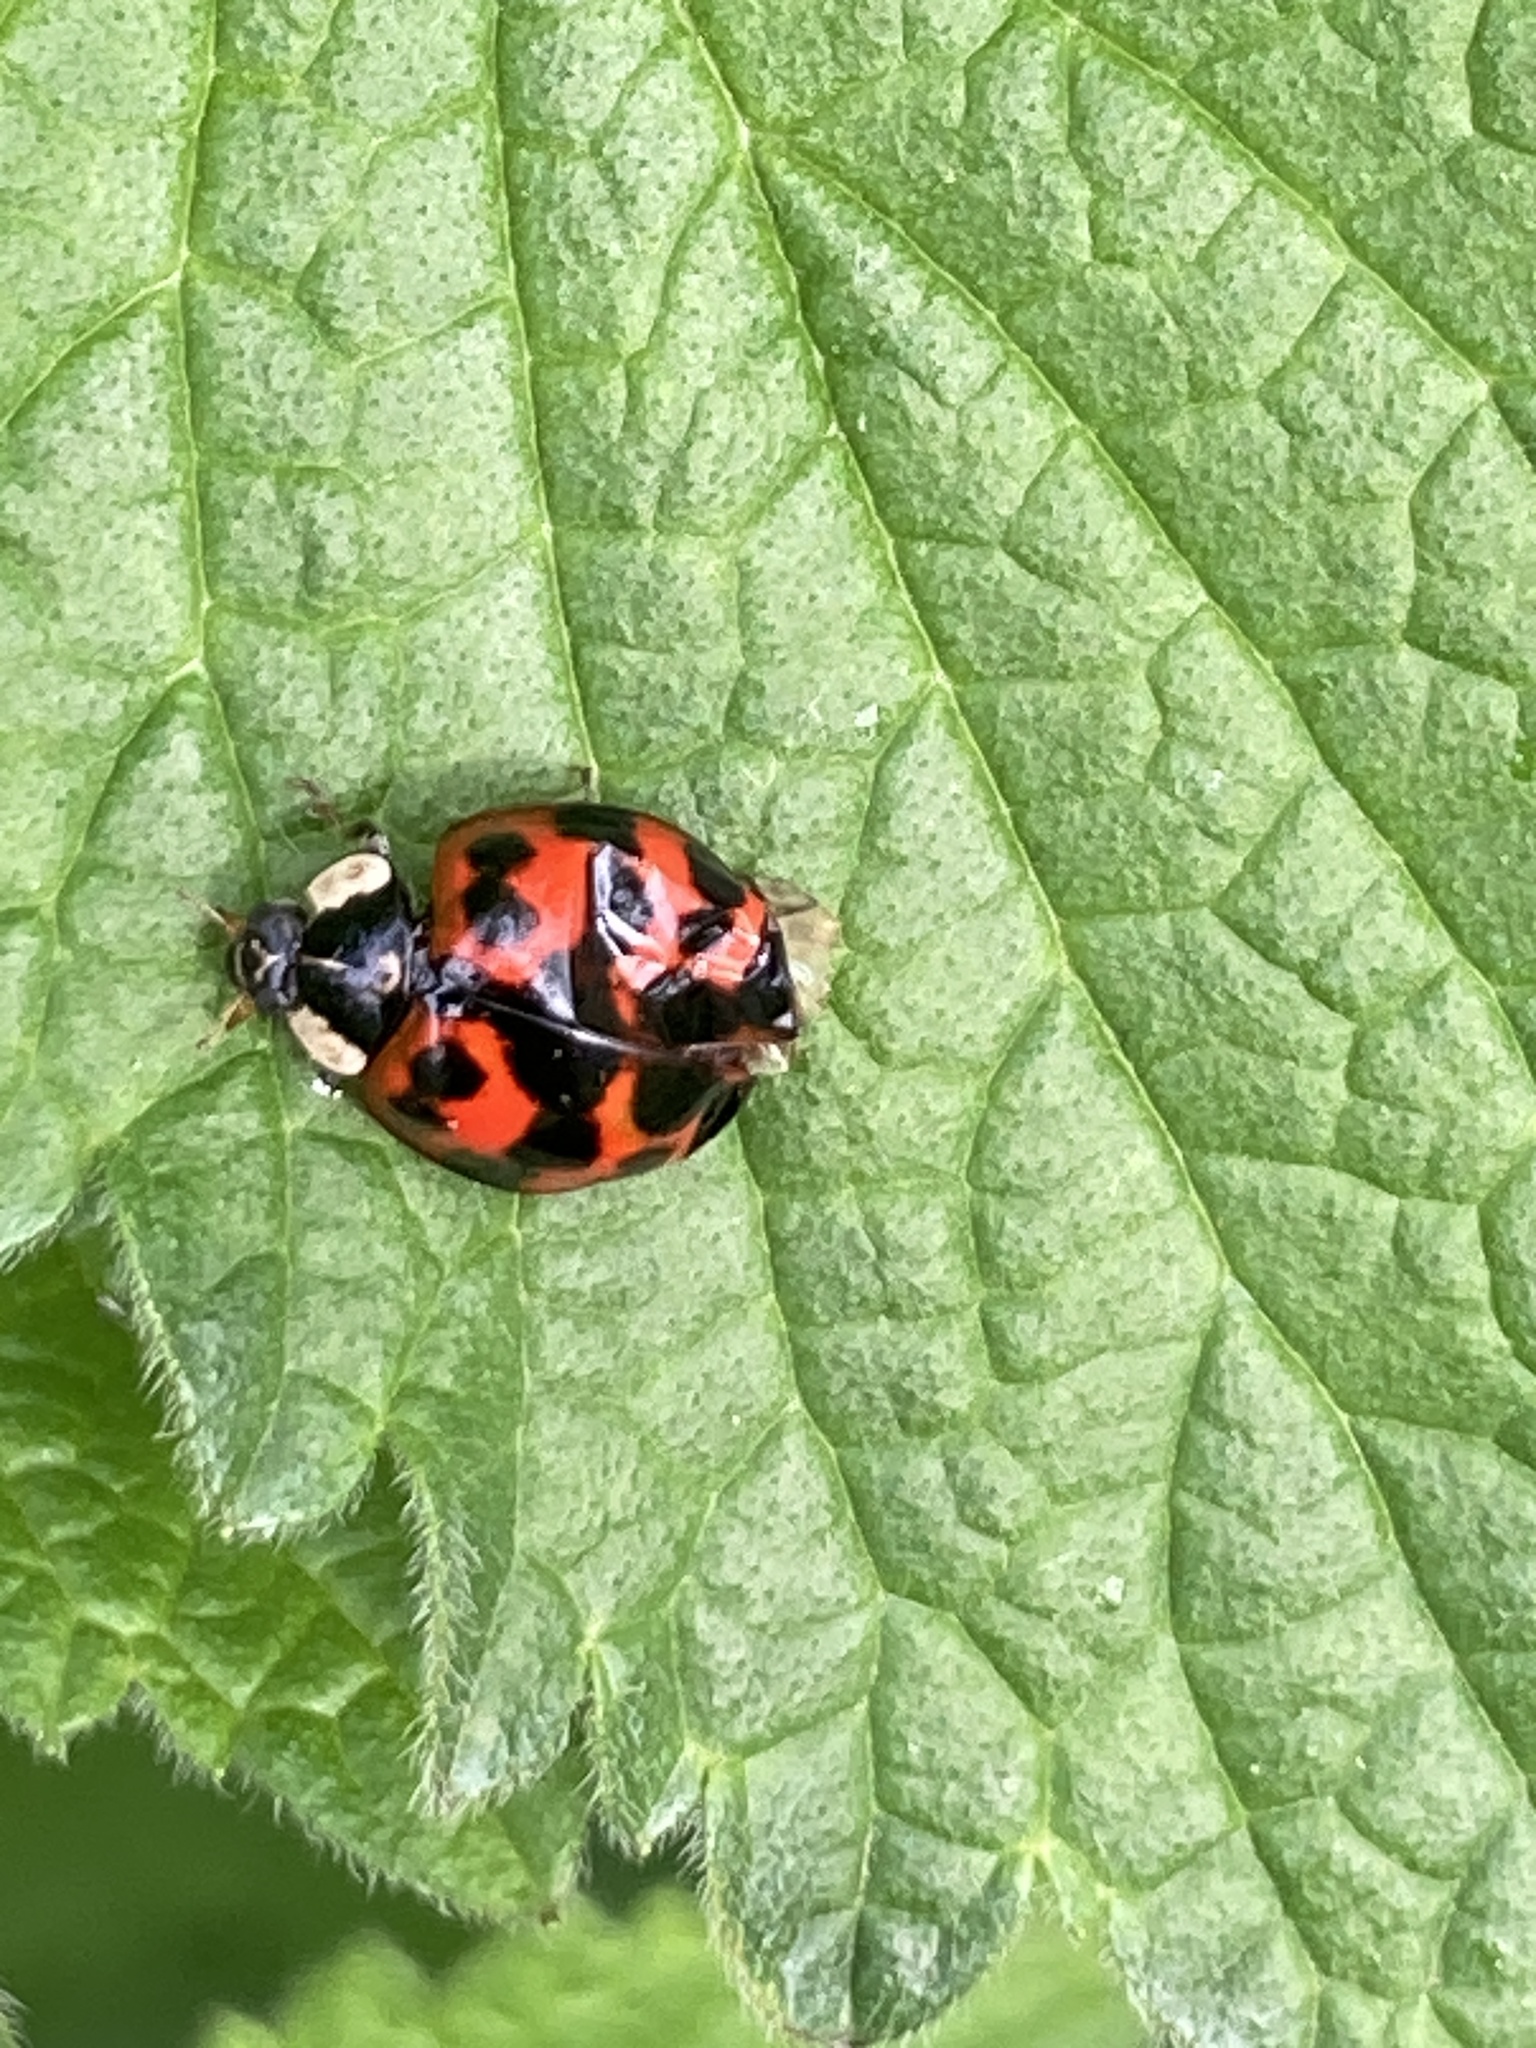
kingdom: Animalia
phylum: Arthropoda
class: Insecta
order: Coleoptera
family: Coccinellidae
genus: Harmonia
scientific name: Harmonia axyridis
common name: Harlequin ladybird
